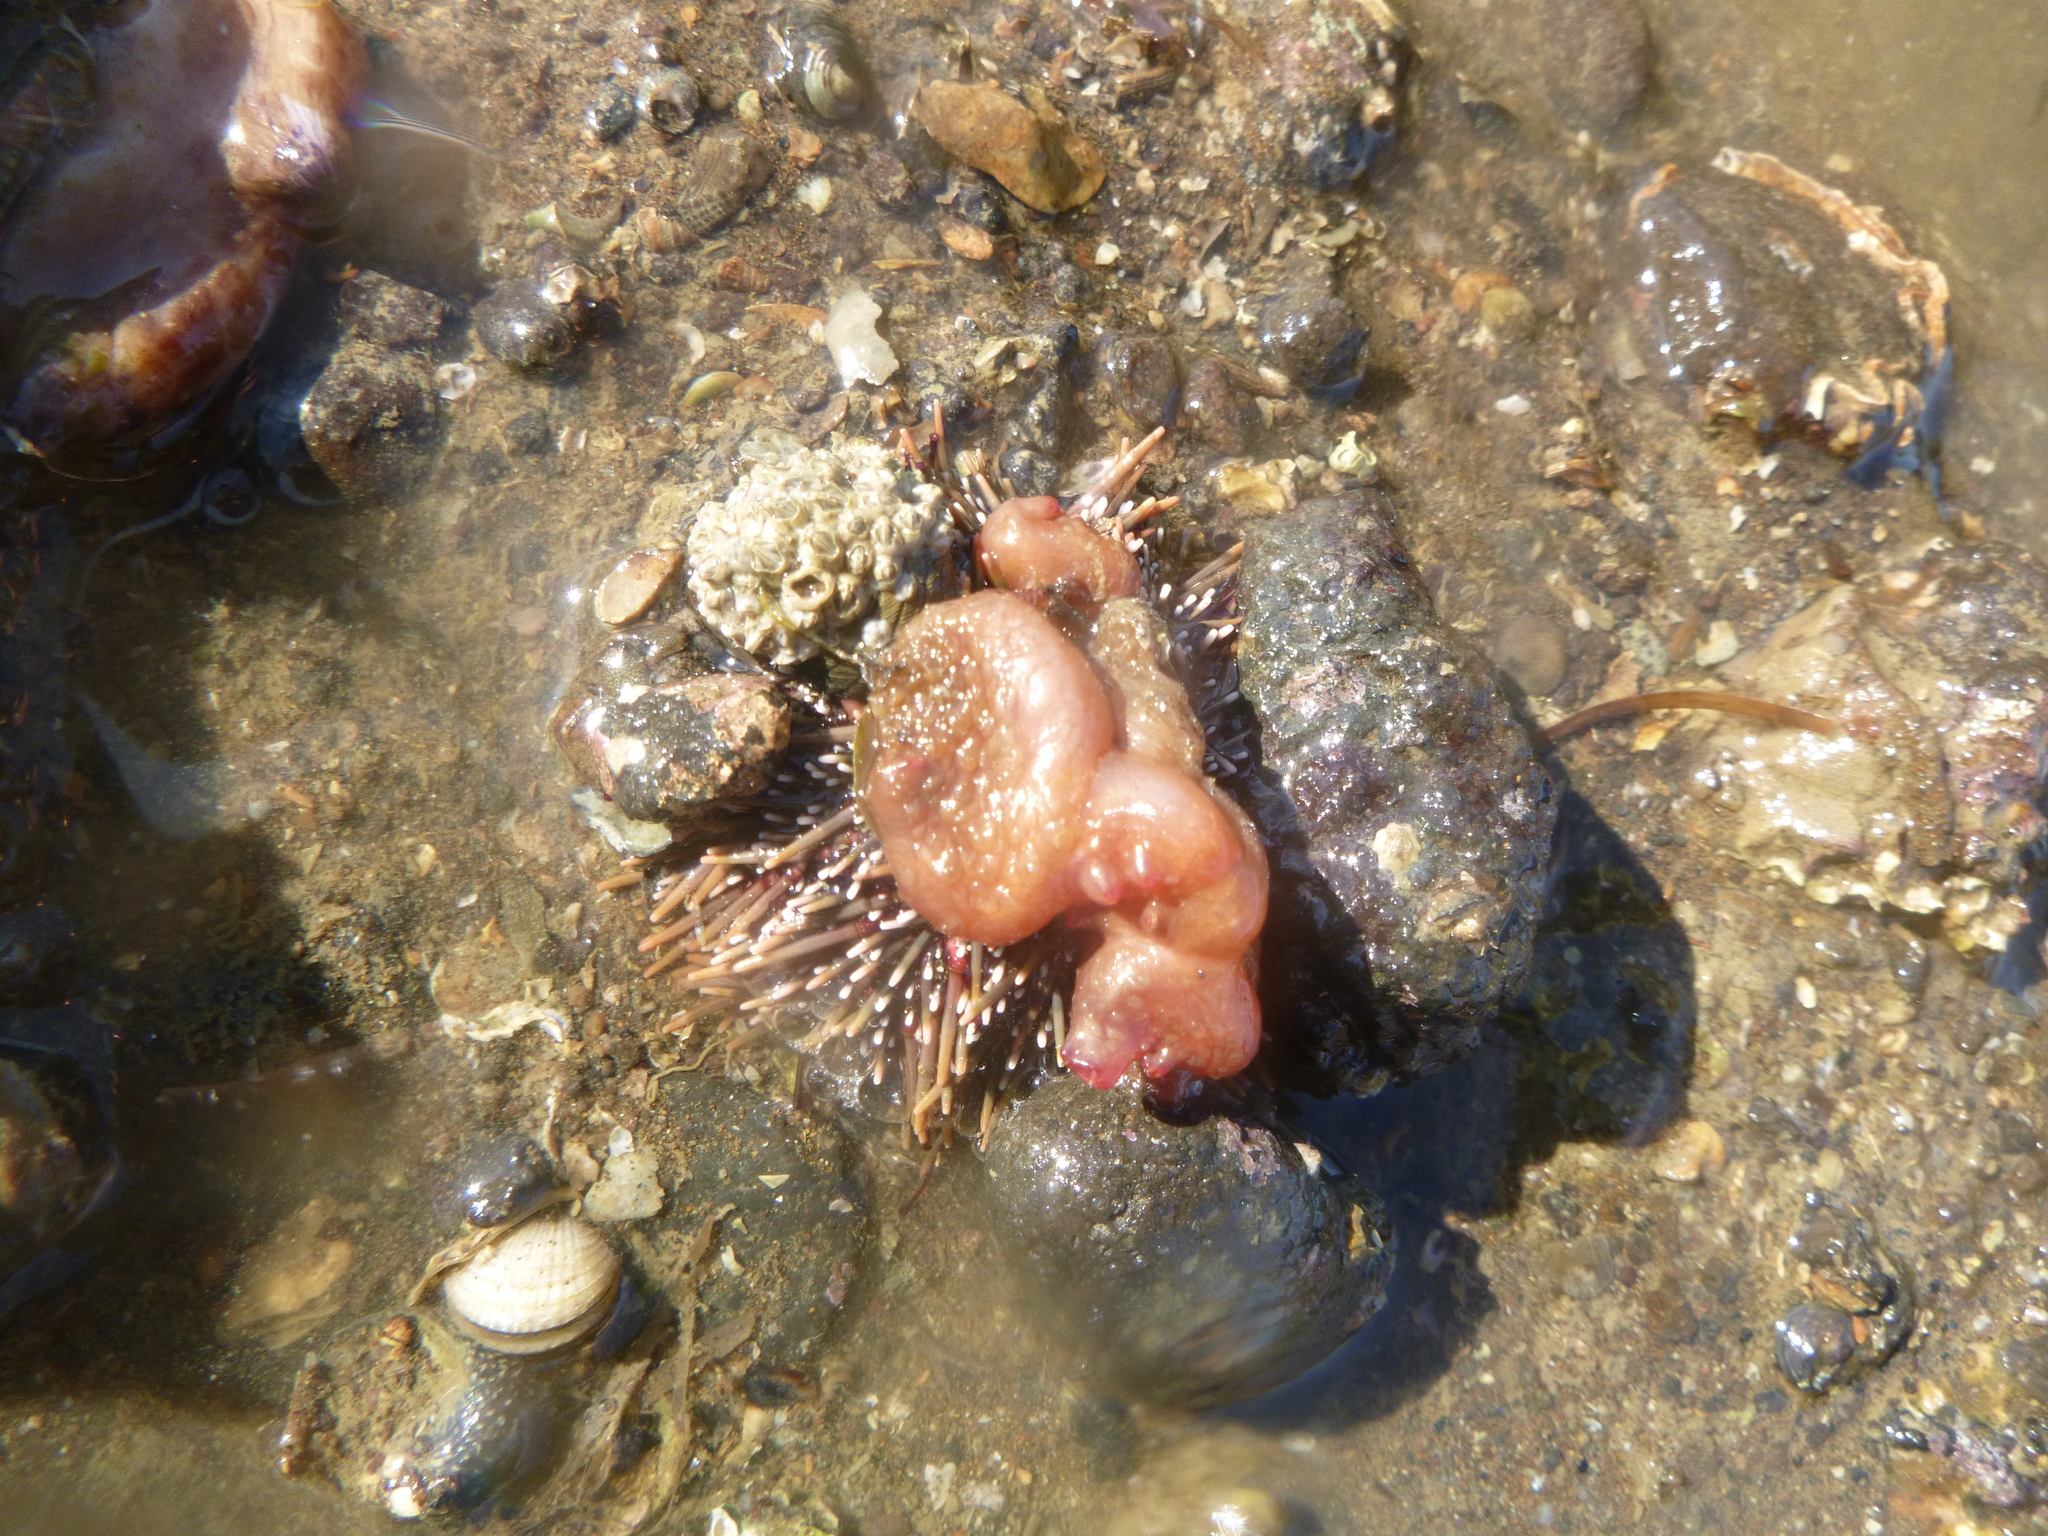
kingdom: Animalia
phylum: Echinodermata
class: Echinoidea
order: Camarodonta
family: Echinometridae
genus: Evechinus
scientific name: Evechinus chloroticus
